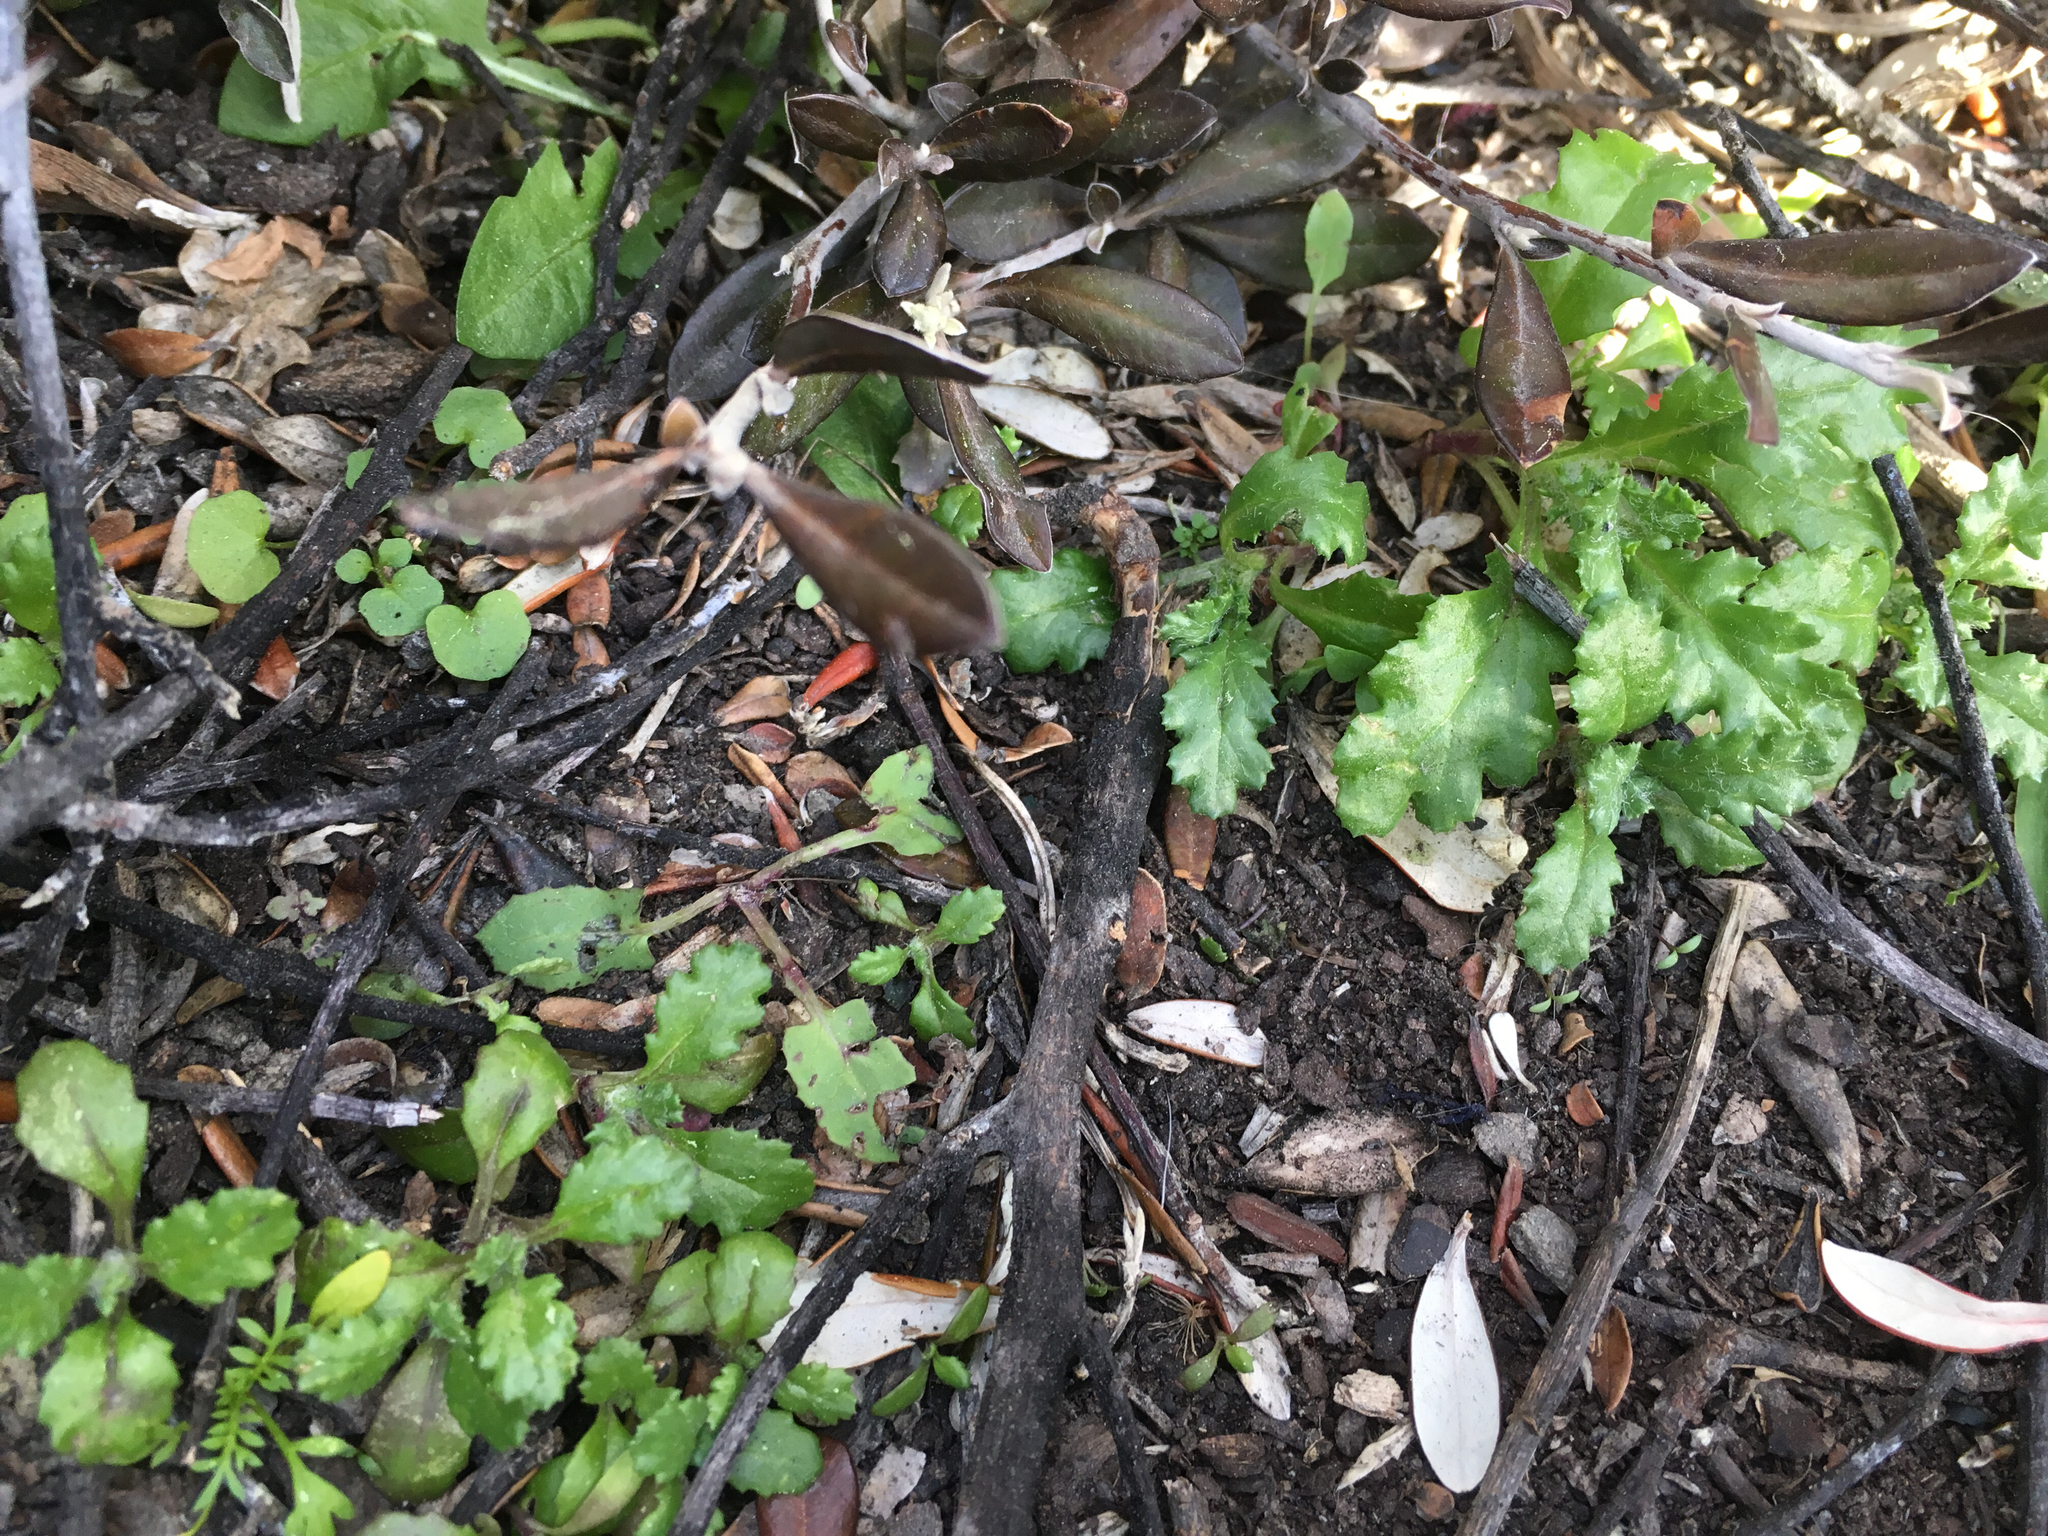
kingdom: Plantae
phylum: Tracheophyta
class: Magnoliopsida
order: Asterales
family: Asteraceae
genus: Senecio
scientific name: Senecio vulgaris
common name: Old-man-in-the-spring
